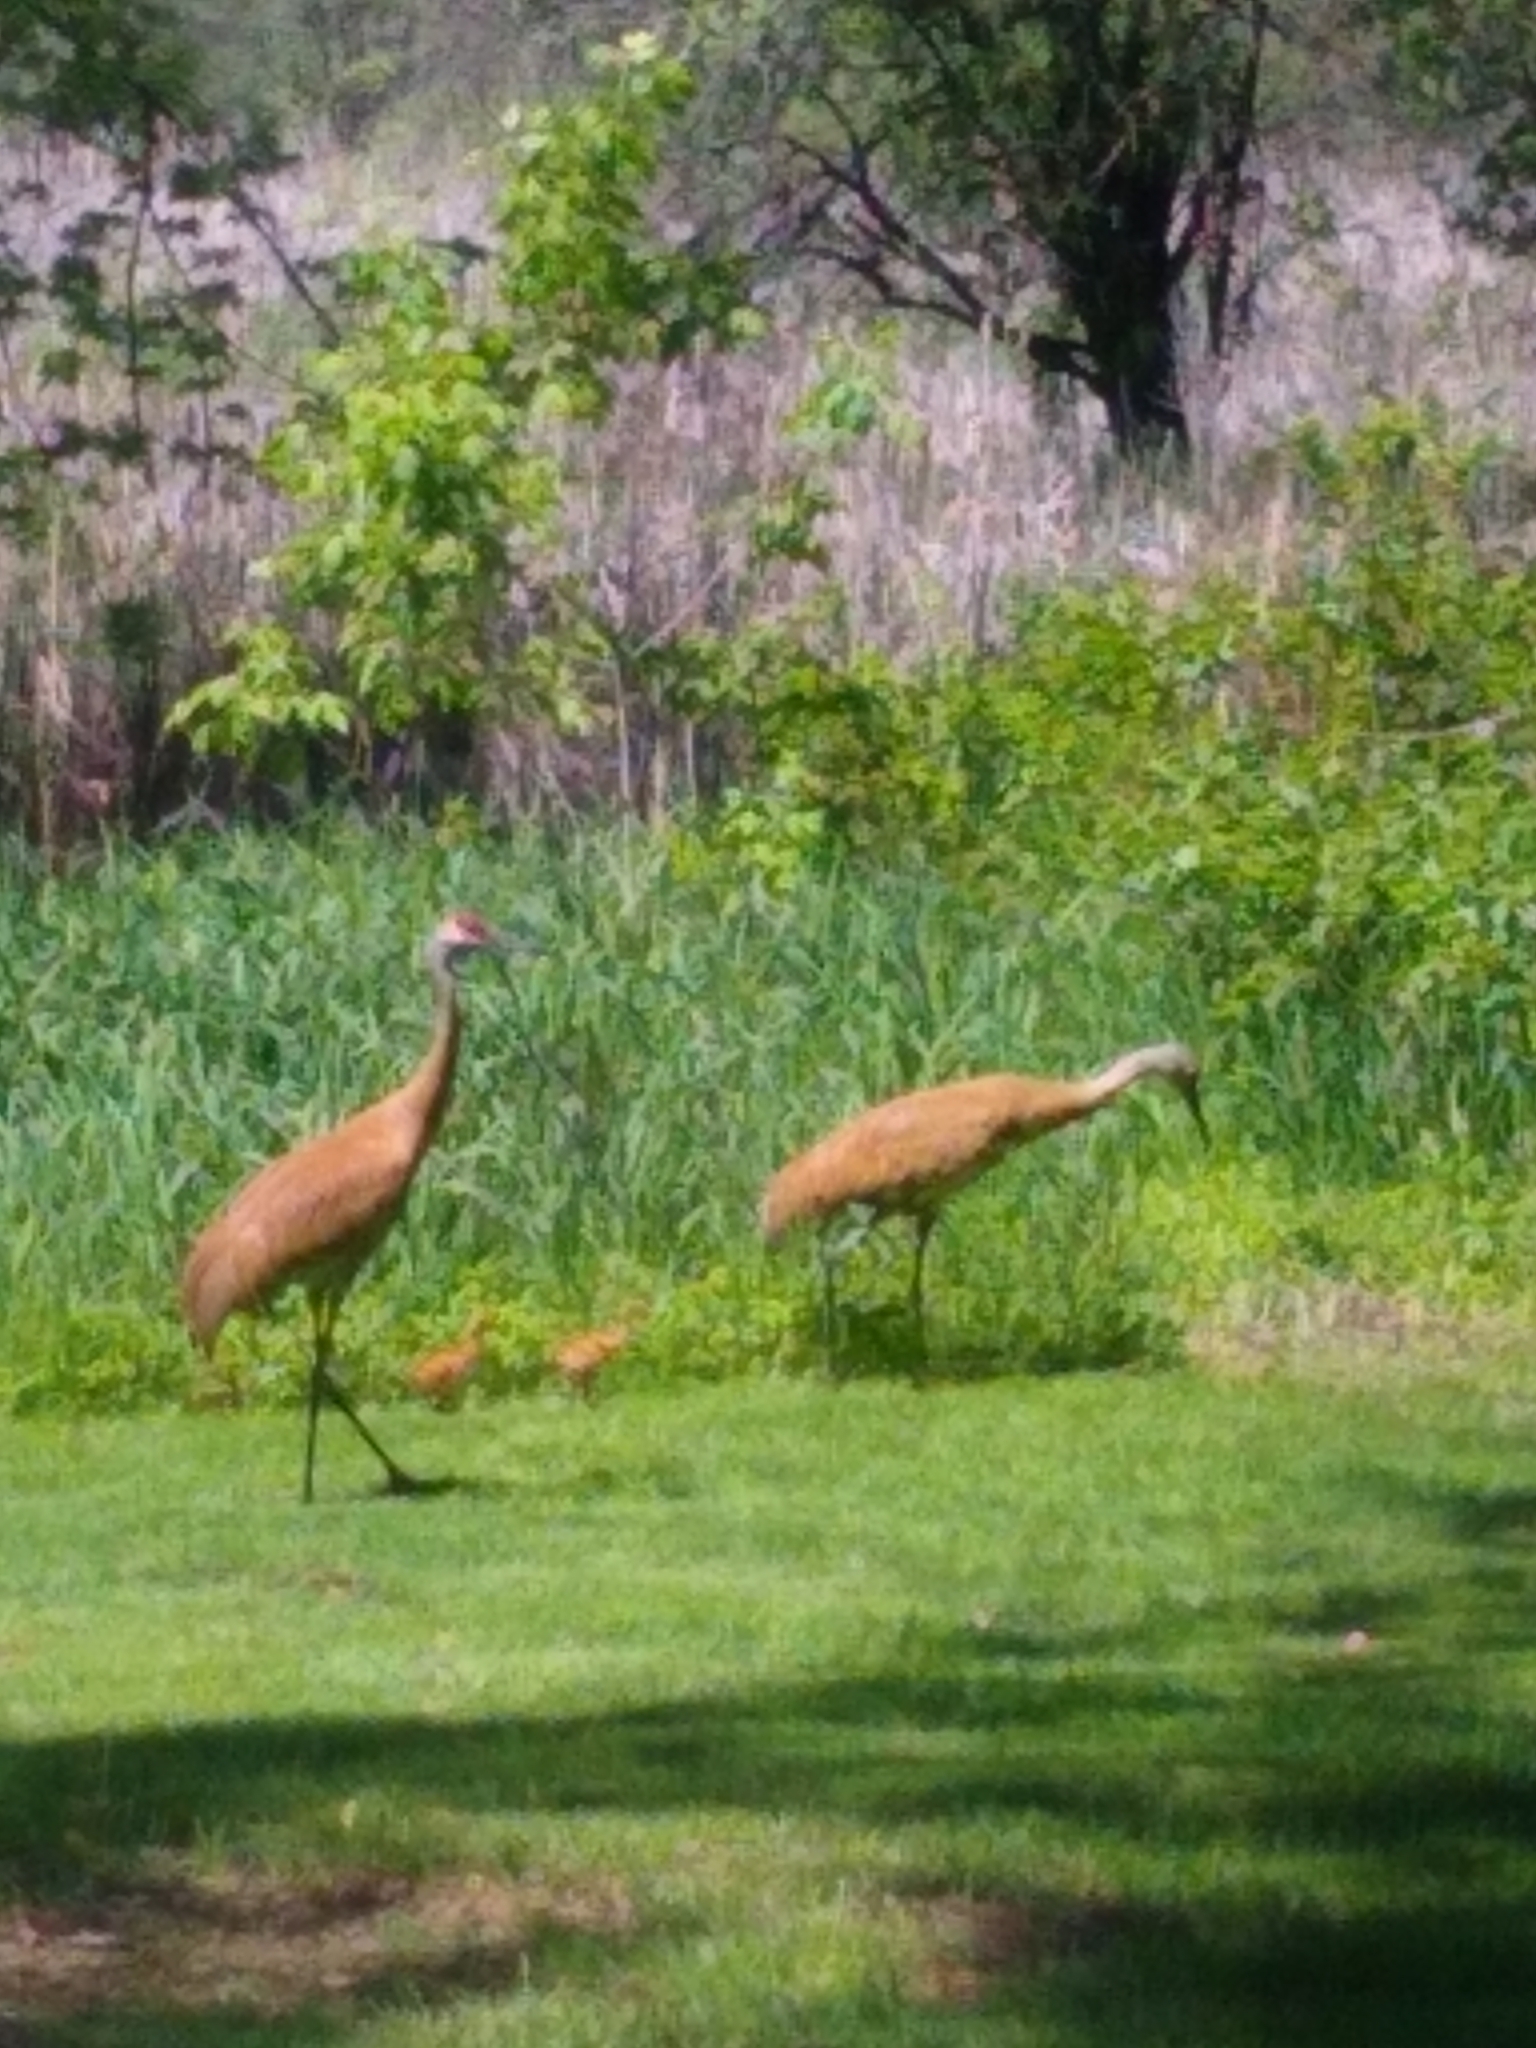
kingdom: Animalia
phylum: Chordata
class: Aves
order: Gruiformes
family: Gruidae
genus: Grus
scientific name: Grus canadensis
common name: Sandhill crane
